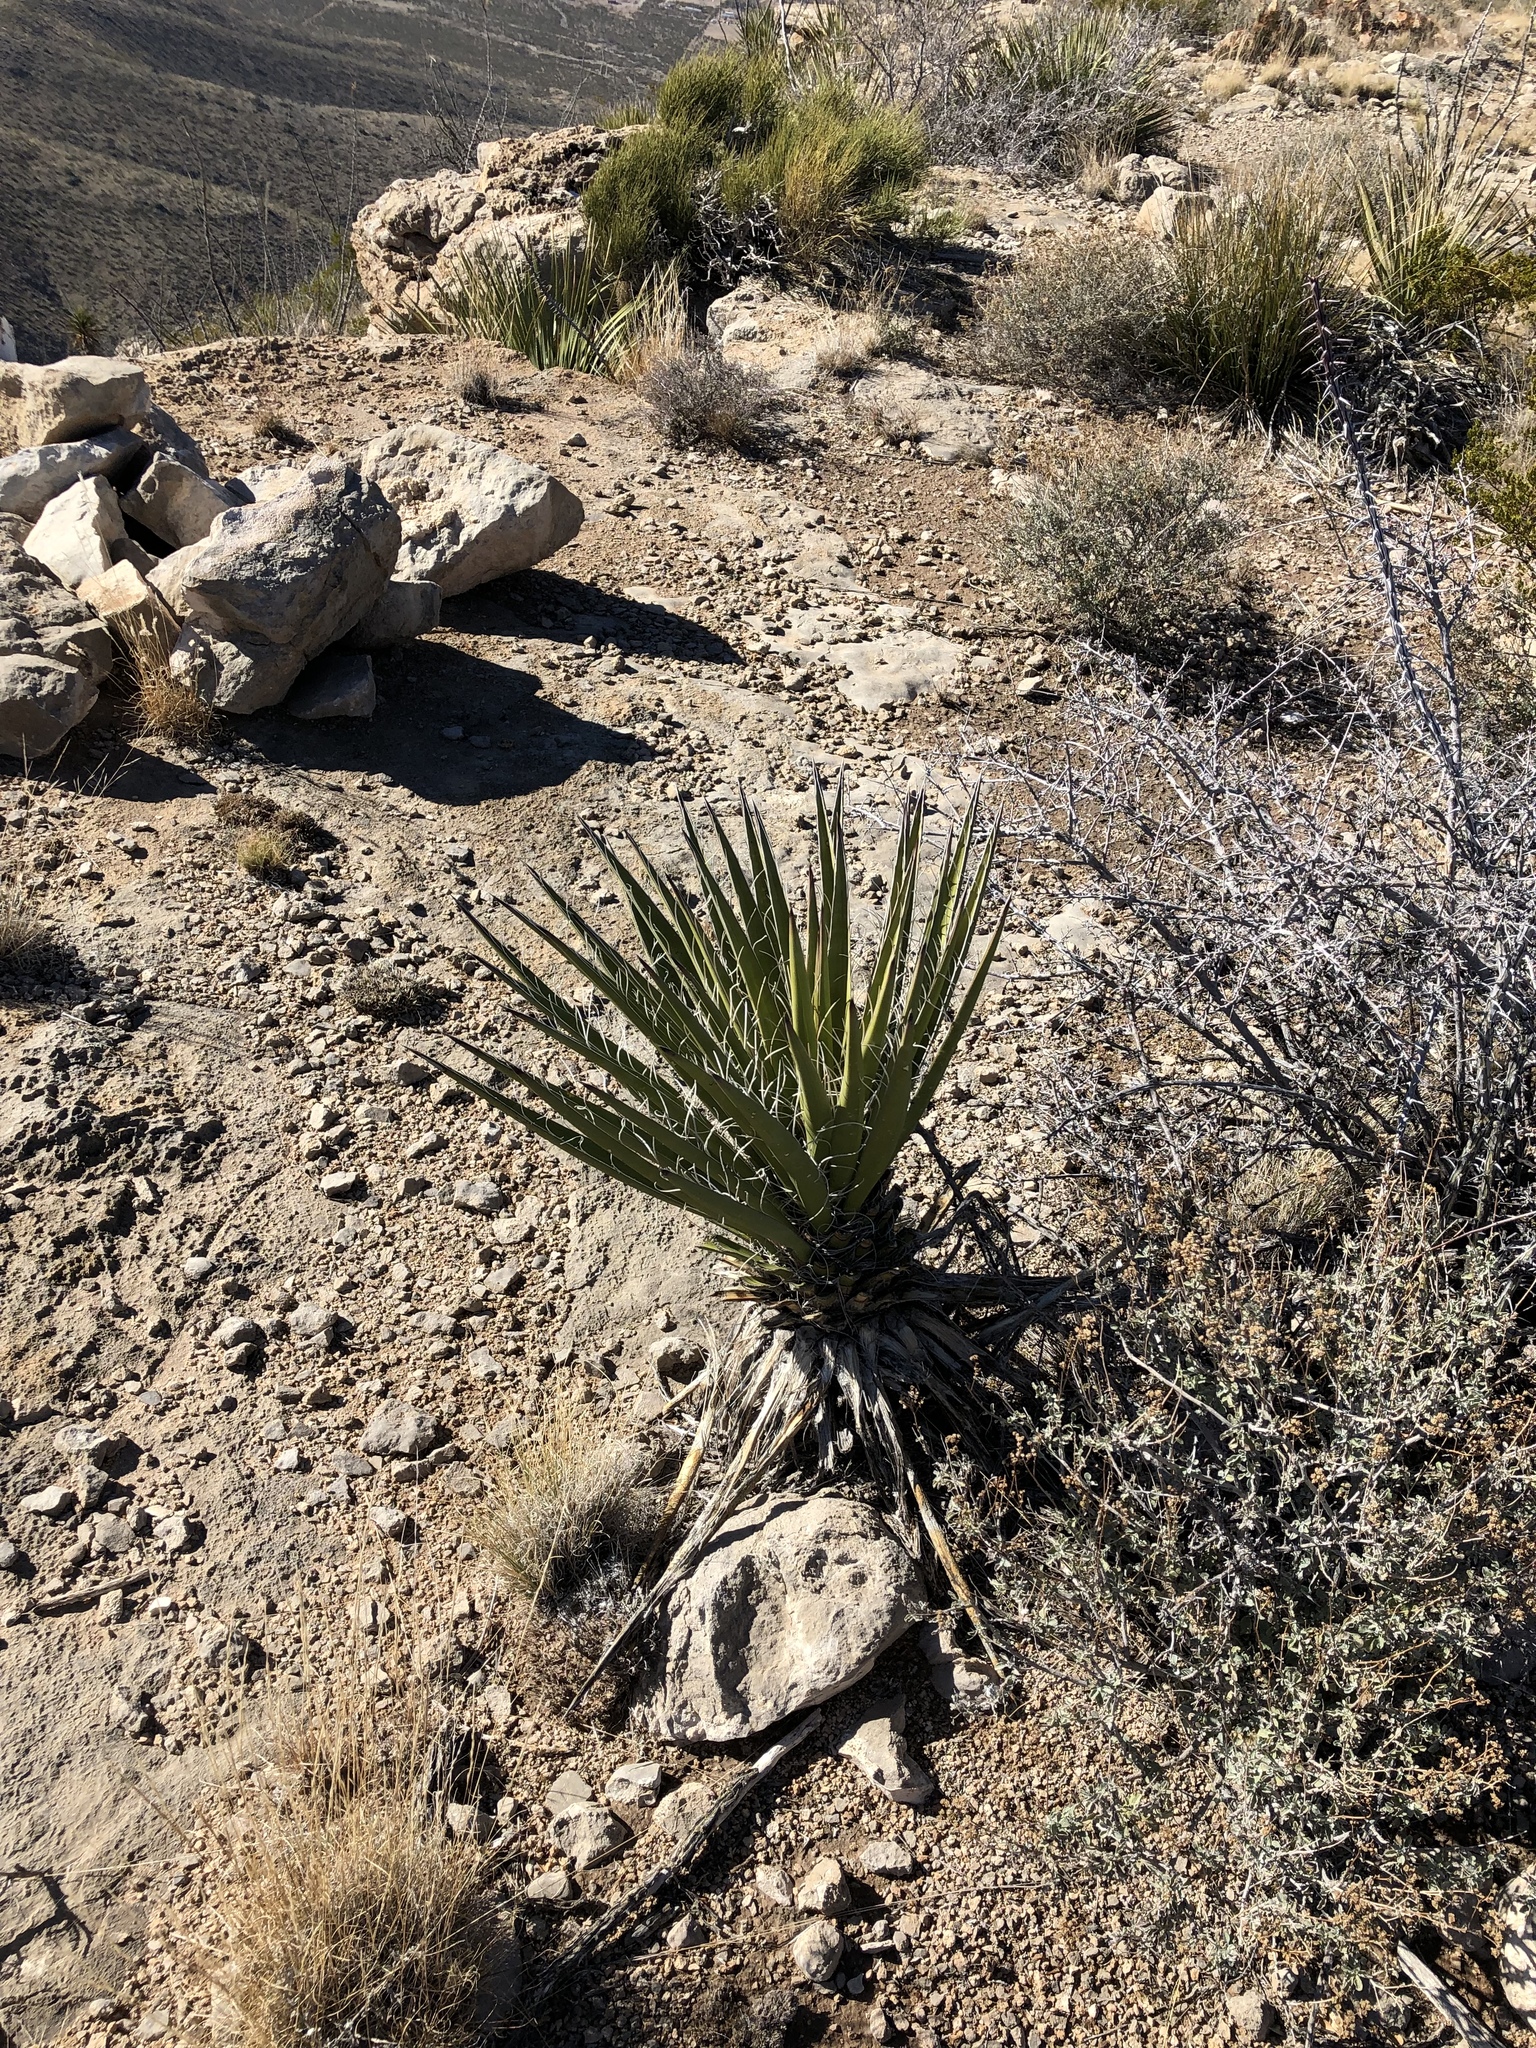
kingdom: Plantae
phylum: Tracheophyta
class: Liliopsida
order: Asparagales
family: Asparagaceae
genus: Yucca
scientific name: Yucca baccata
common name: Banana yucca
